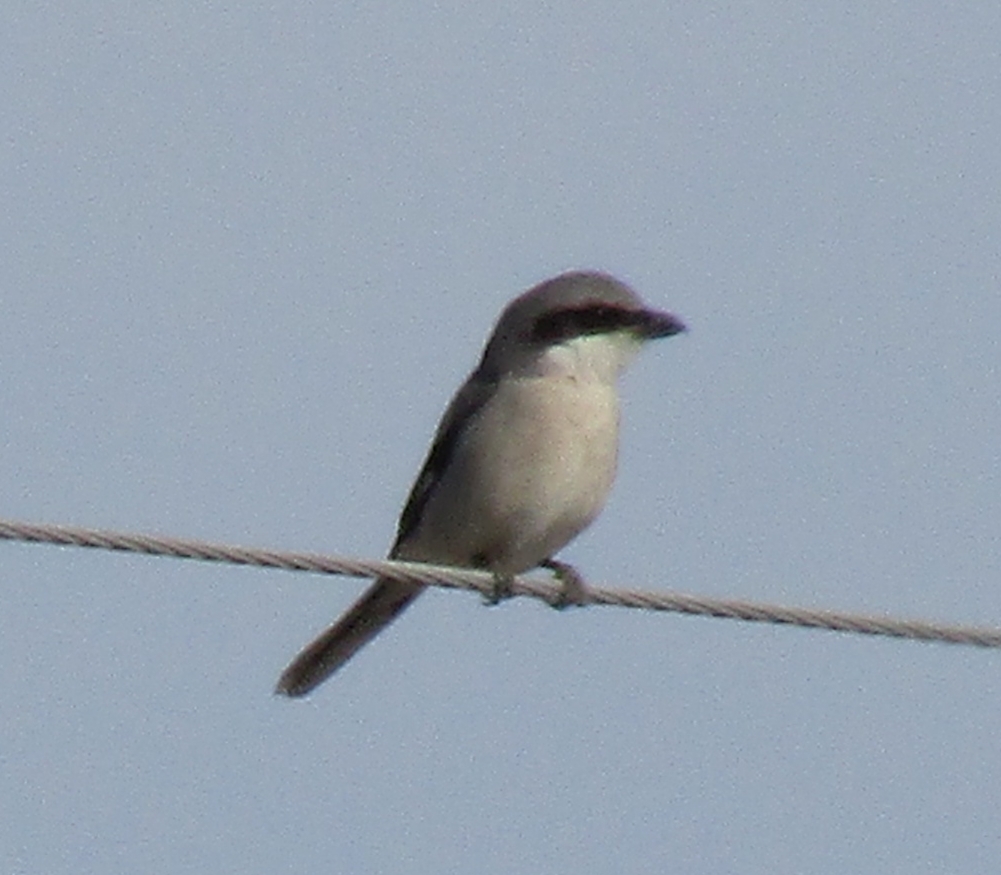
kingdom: Animalia
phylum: Chordata
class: Aves
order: Passeriformes
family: Laniidae
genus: Lanius
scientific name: Lanius ludovicianus
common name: Loggerhead shrike
